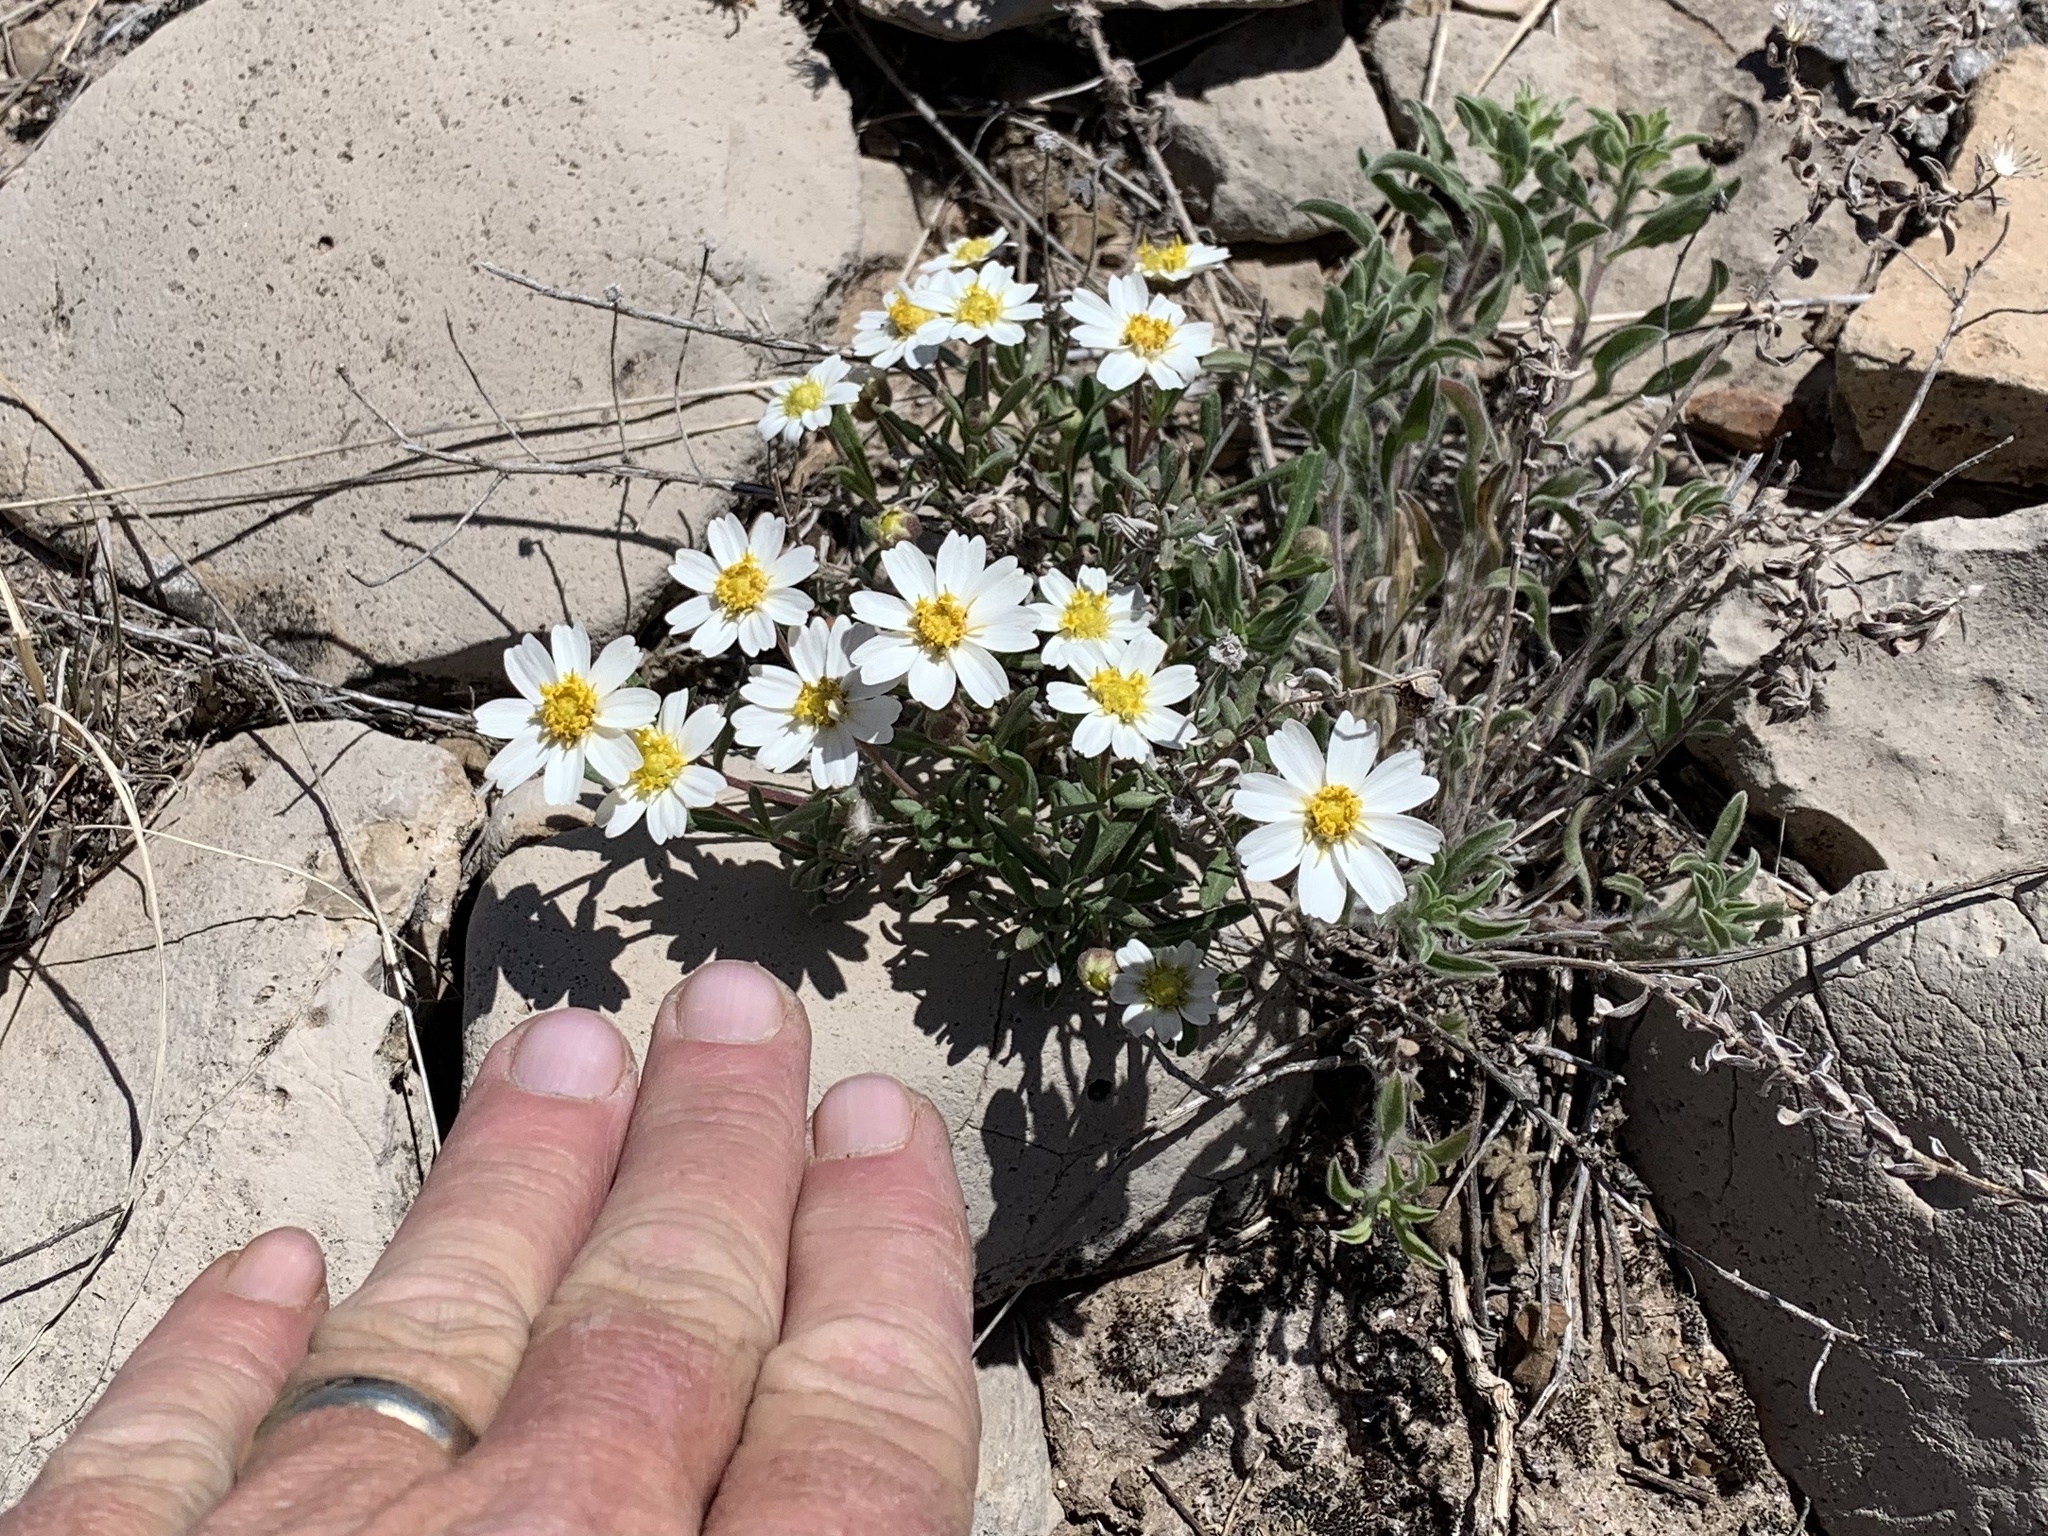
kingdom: Plantae
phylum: Tracheophyta
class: Magnoliopsida
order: Asterales
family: Asteraceae
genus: Melampodium
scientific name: Melampodium leucanthum
